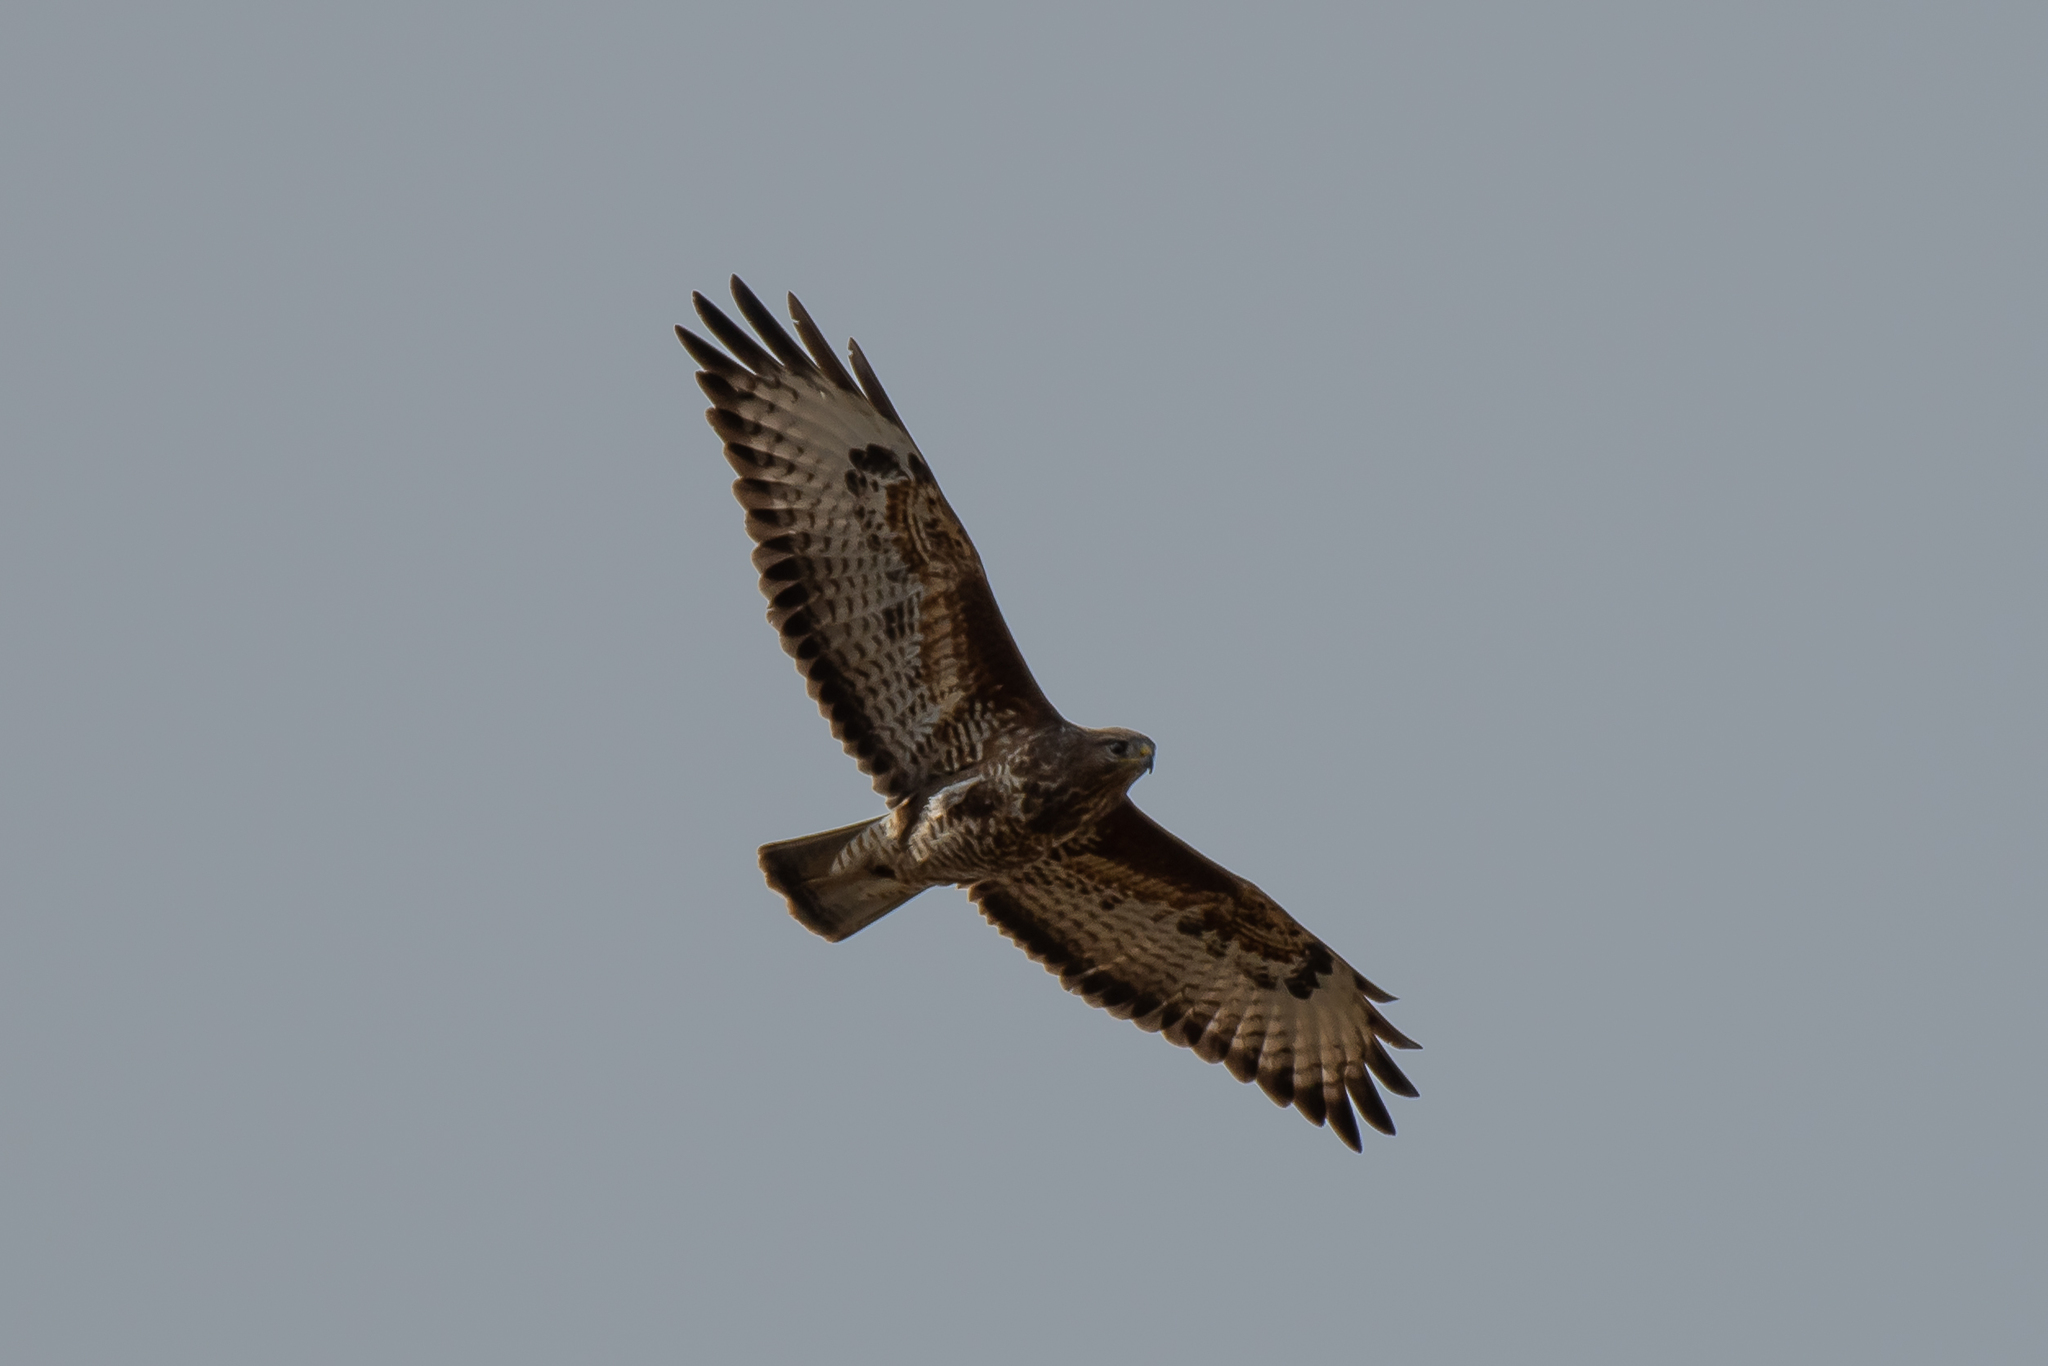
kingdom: Animalia
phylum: Chordata
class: Aves
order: Accipitriformes
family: Accipitridae
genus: Buteo
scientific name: Buteo buteo
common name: Common buzzard
